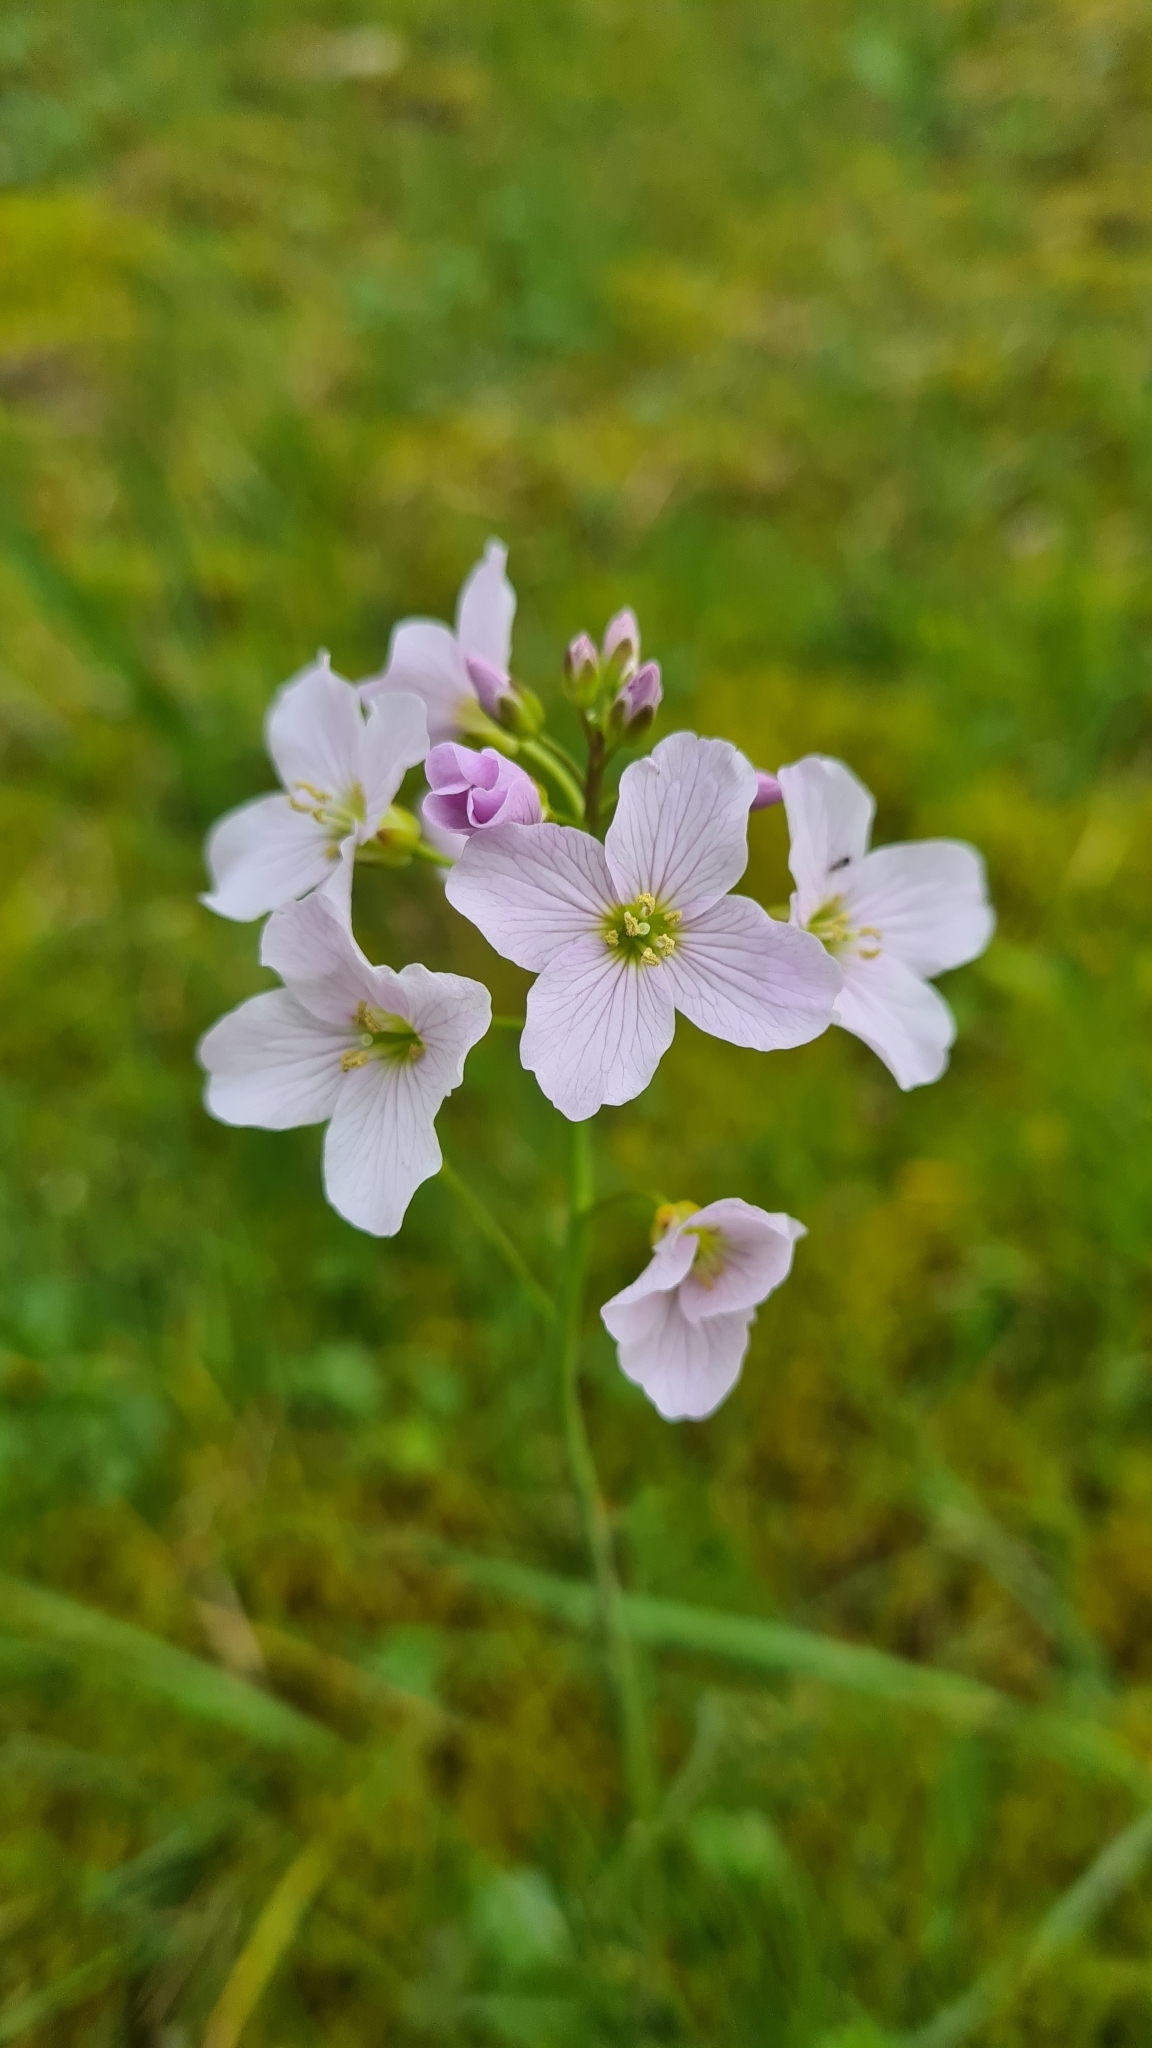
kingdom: Plantae
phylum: Tracheophyta
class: Magnoliopsida
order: Brassicales
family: Brassicaceae
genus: Cardamine
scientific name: Cardamine pratensis
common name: Cuckoo flower
